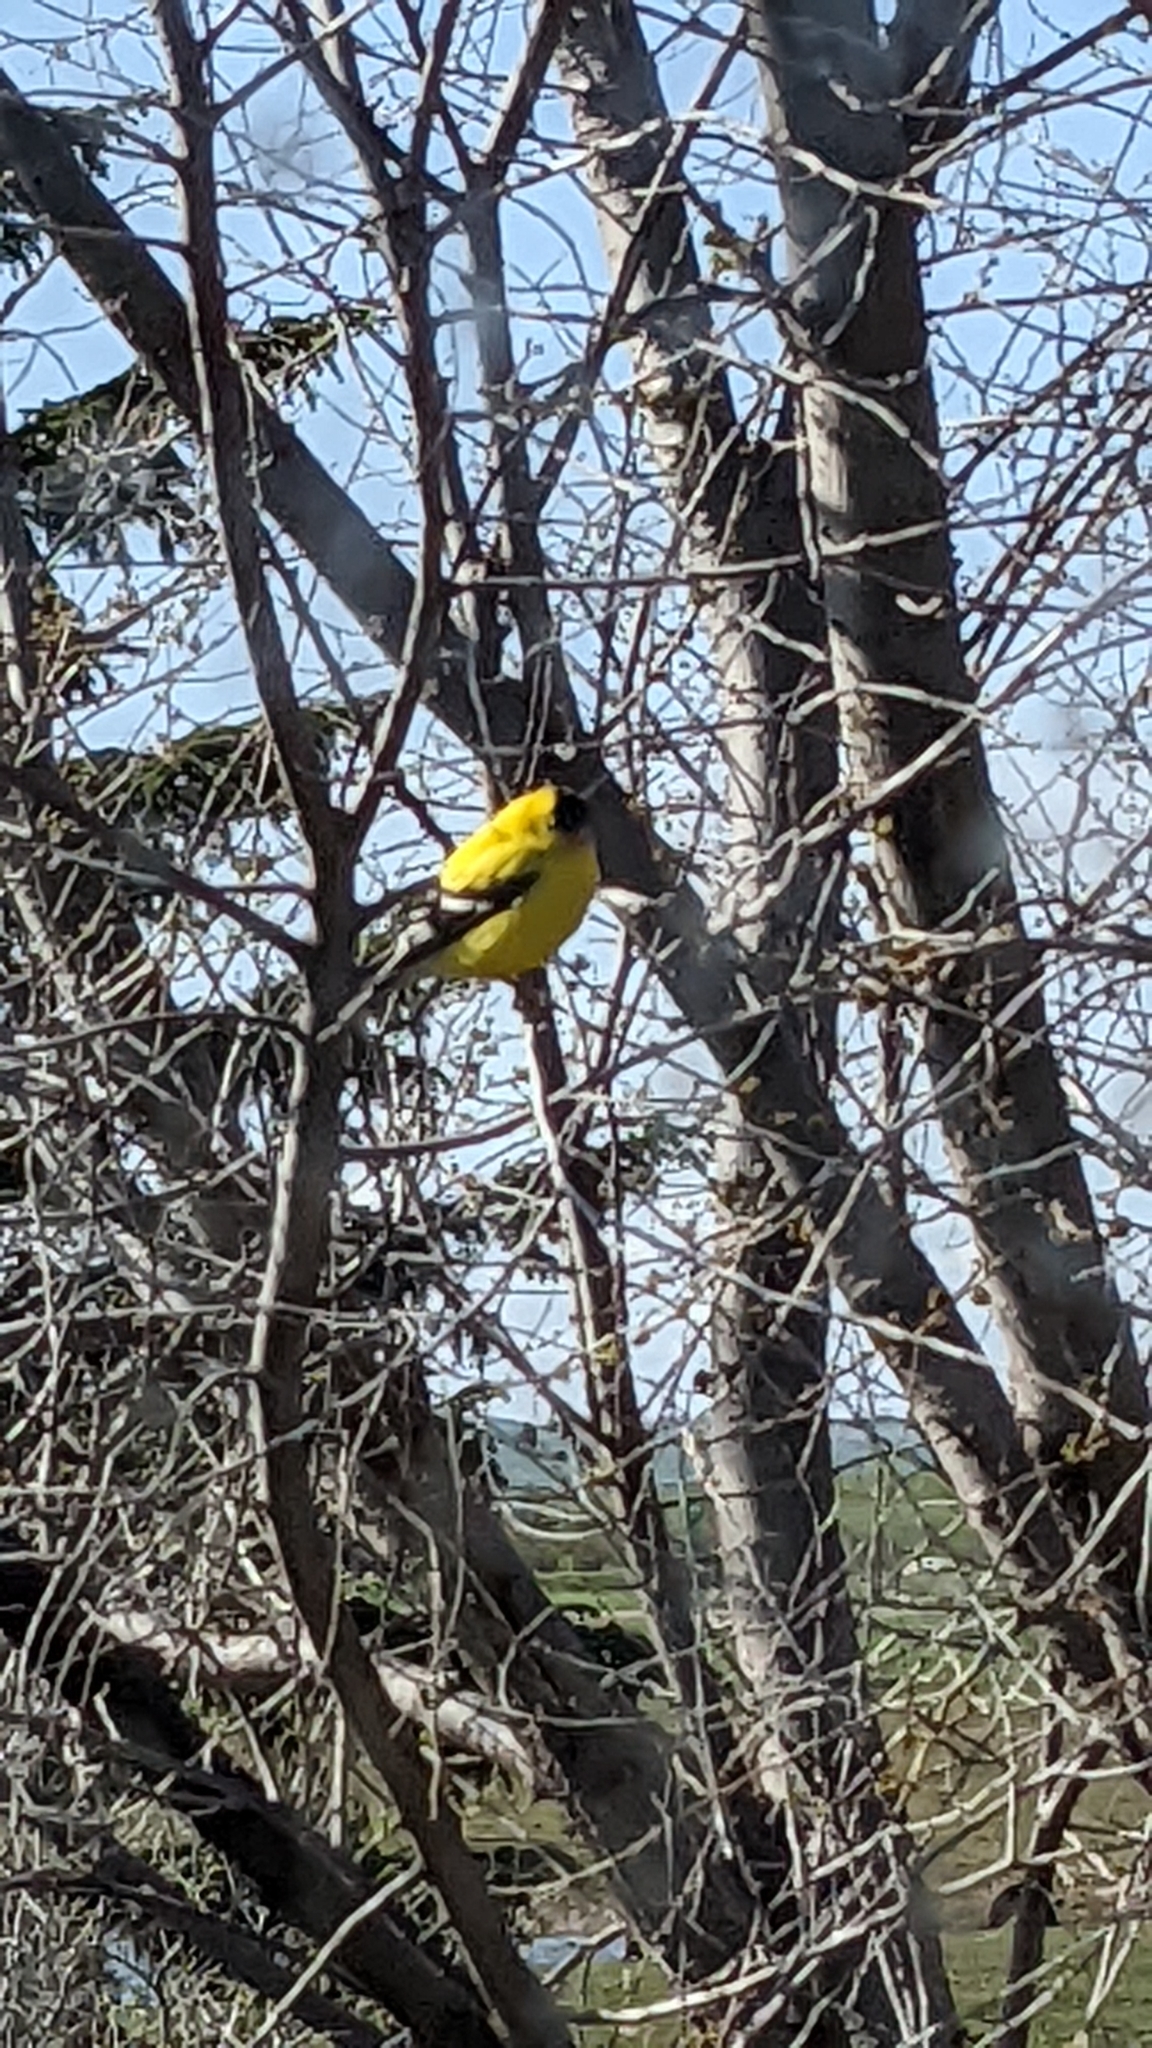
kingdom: Animalia
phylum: Chordata
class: Aves
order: Passeriformes
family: Fringillidae
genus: Spinus
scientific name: Spinus tristis
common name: American goldfinch
